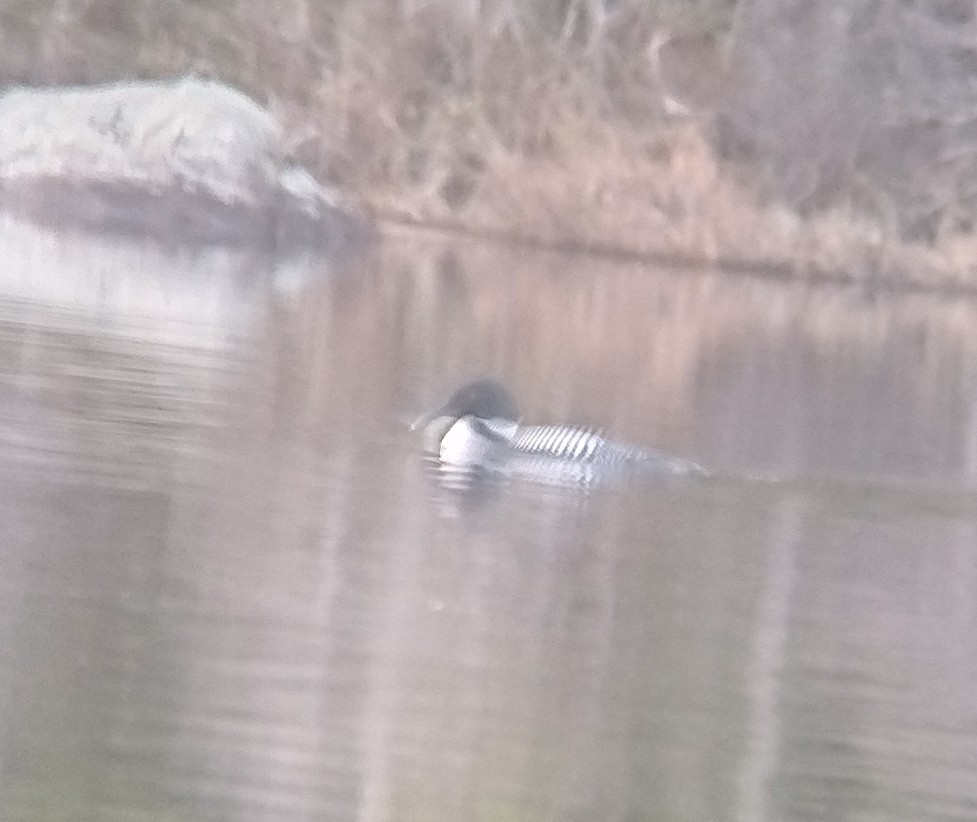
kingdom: Animalia
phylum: Chordata
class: Aves
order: Gaviiformes
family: Gaviidae
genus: Gavia
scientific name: Gavia immer
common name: Common loon
